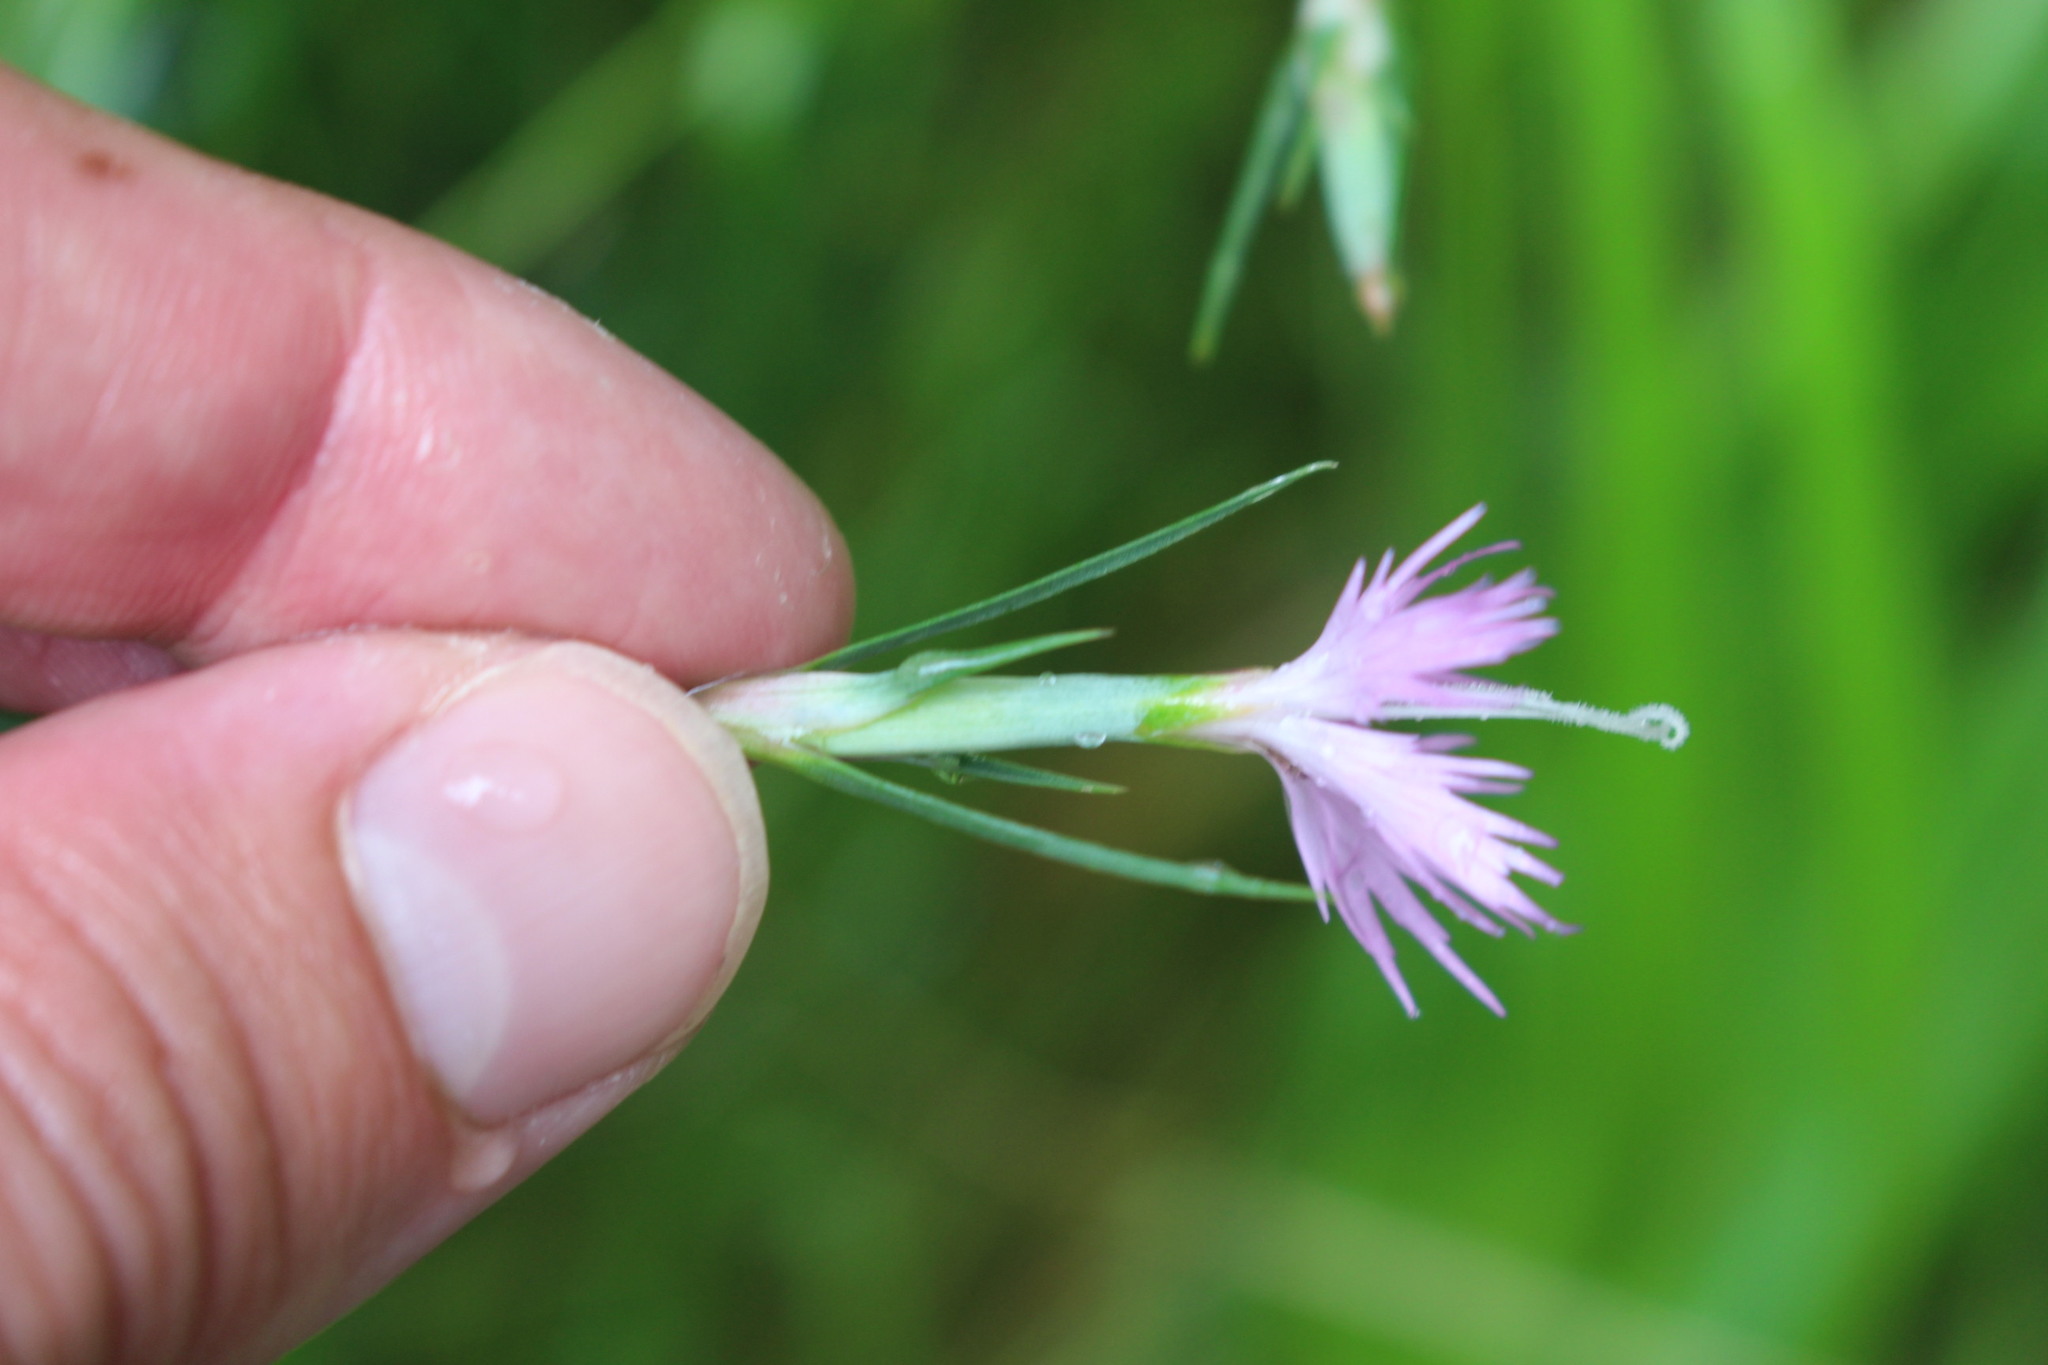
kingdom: Plantae
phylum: Tracheophyta
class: Magnoliopsida
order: Caryophyllales
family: Caryophyllaceae
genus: Dianthus
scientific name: Dianthus hyssopifolius
